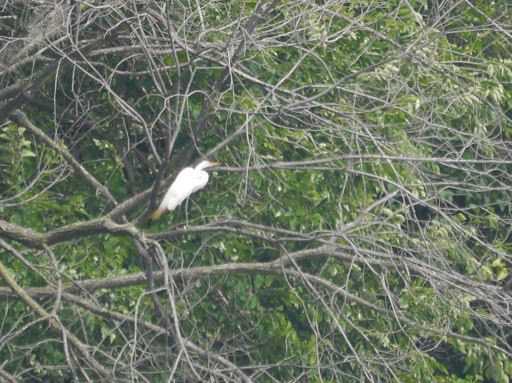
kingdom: Animalia
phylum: Chordata
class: Aves
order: Pelecaniformes
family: Ardeidae
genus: Ardea
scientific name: Ardea alba
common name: Great egret
